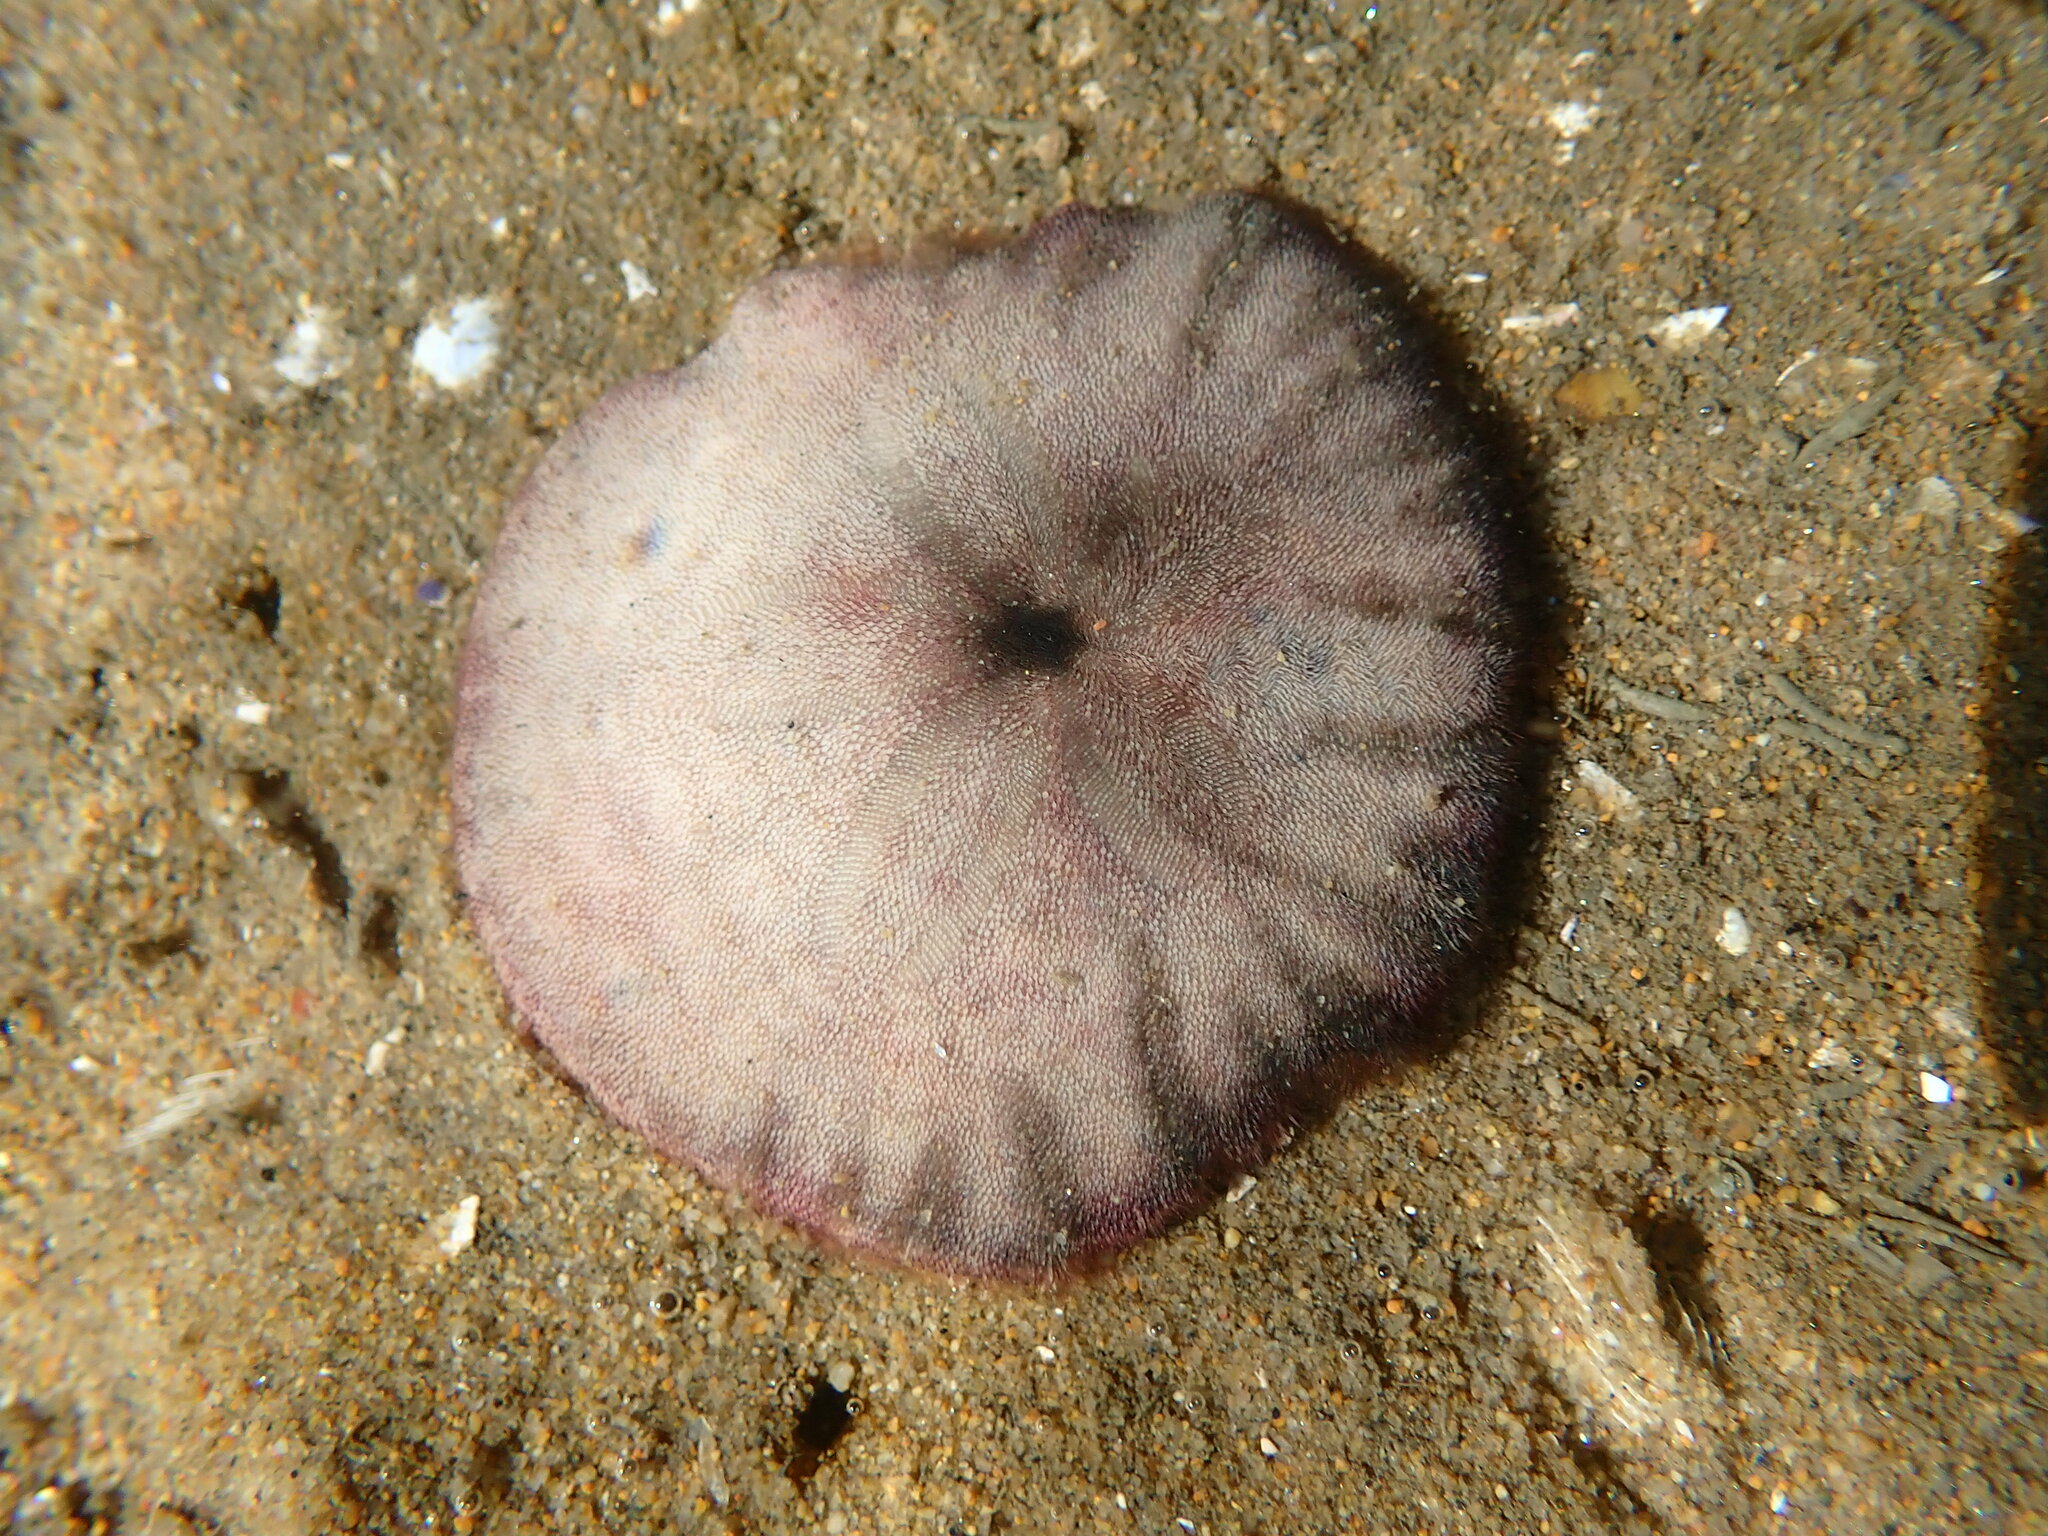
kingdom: Animalia
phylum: Echinodermata
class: Echinoidea
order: Echinolampadacea
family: Dendrasteridae
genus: Dendraster
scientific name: Dendraster excentricus
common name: Eccentric sand dollar sea urchin
